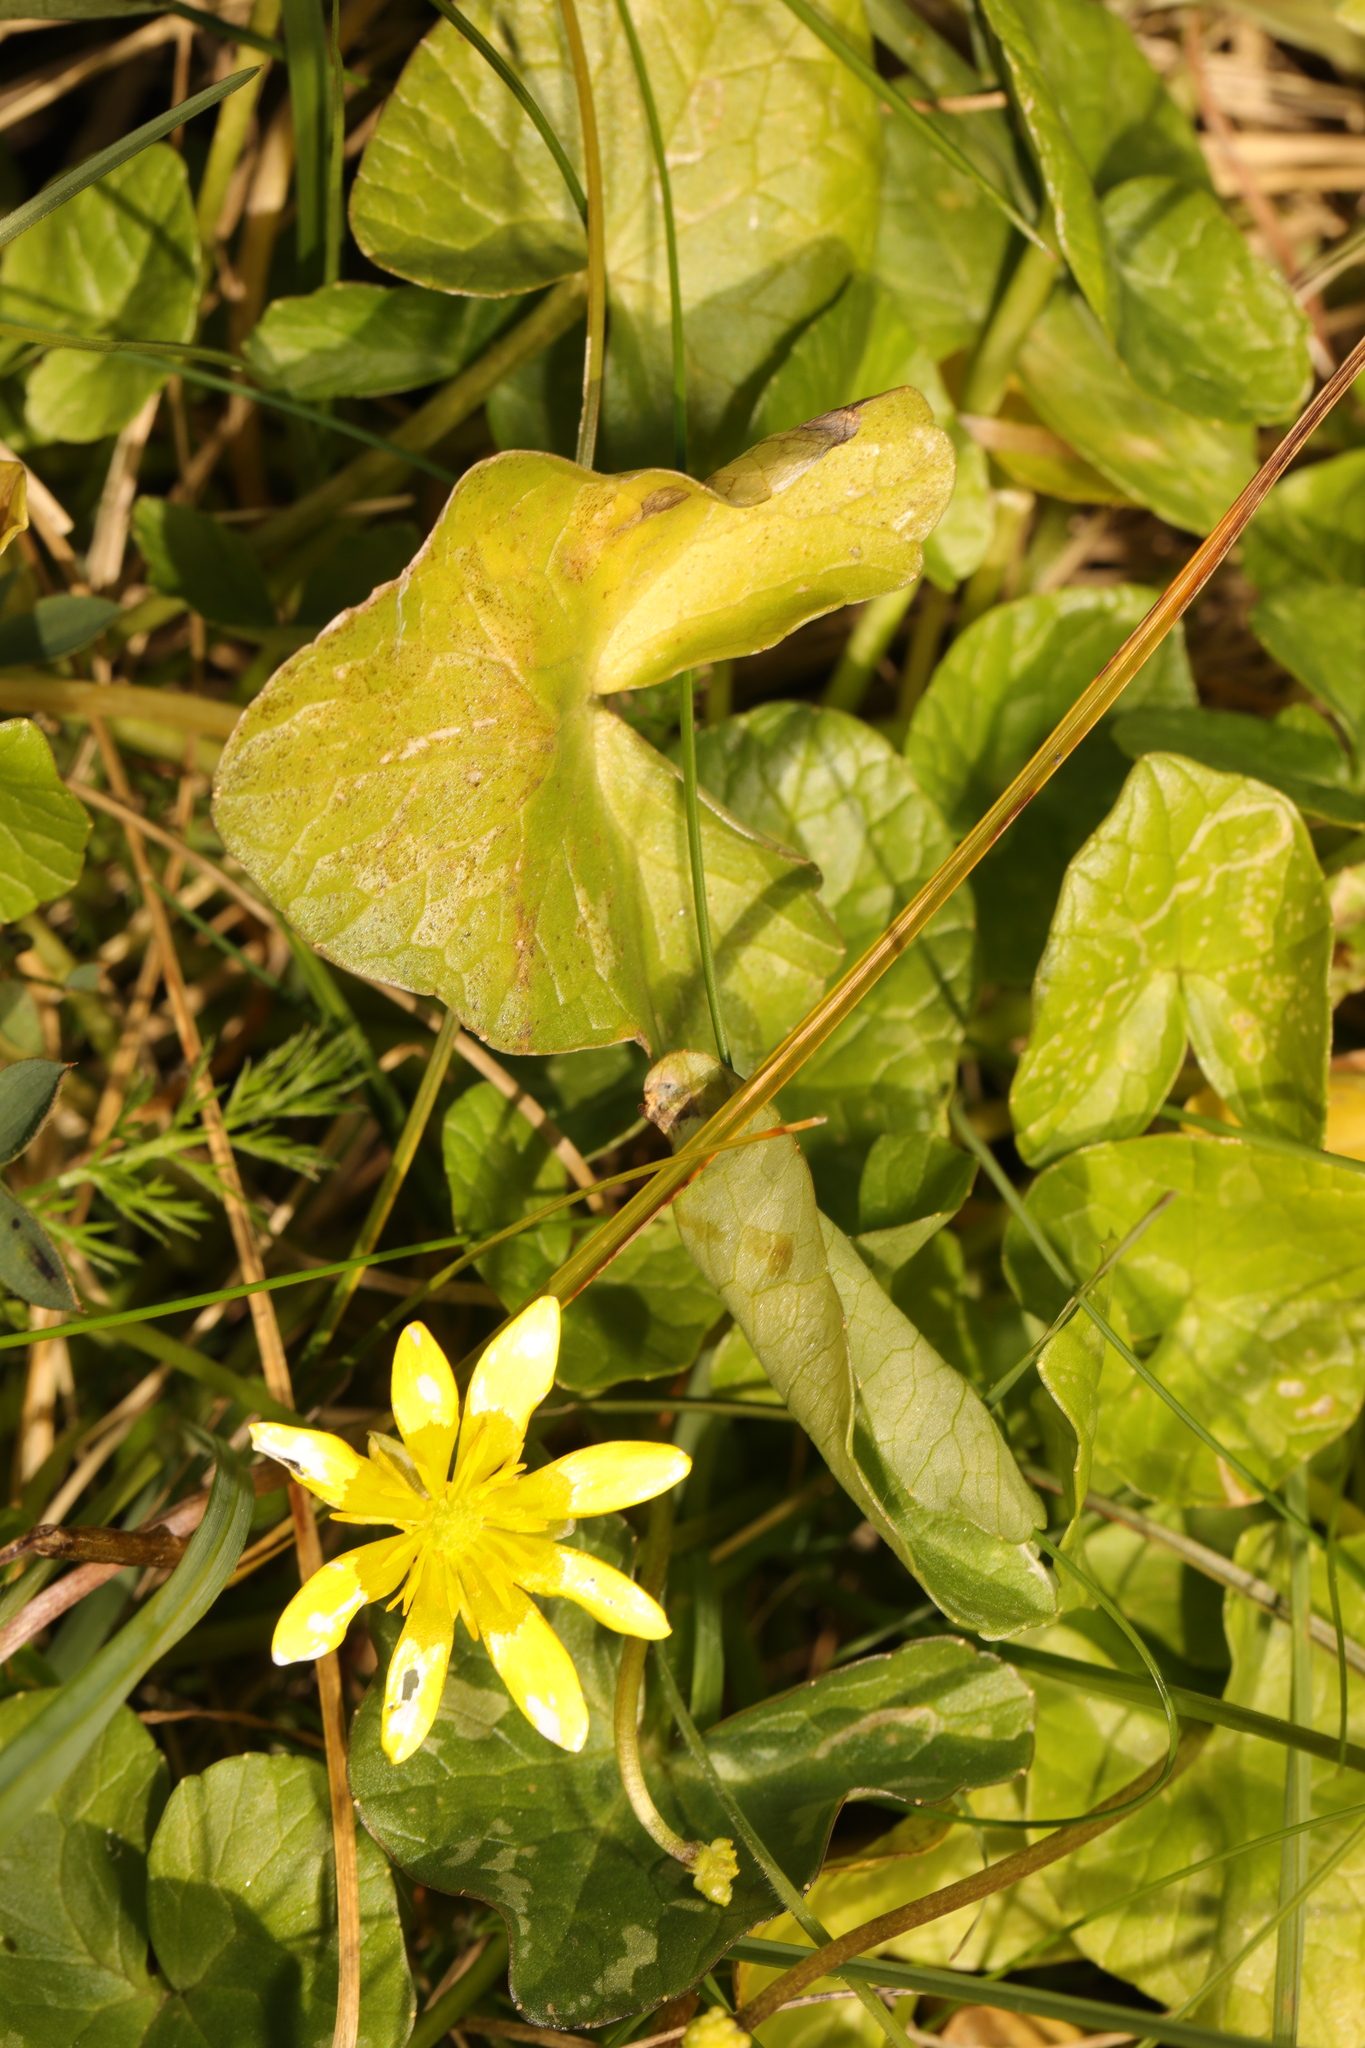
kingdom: Plantae
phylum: Tracheophyta
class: Magnoliopsida
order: Ranunculales
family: Ranunculaceae
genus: Ficaria
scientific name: Ficaria verna
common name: Lesser celandine
